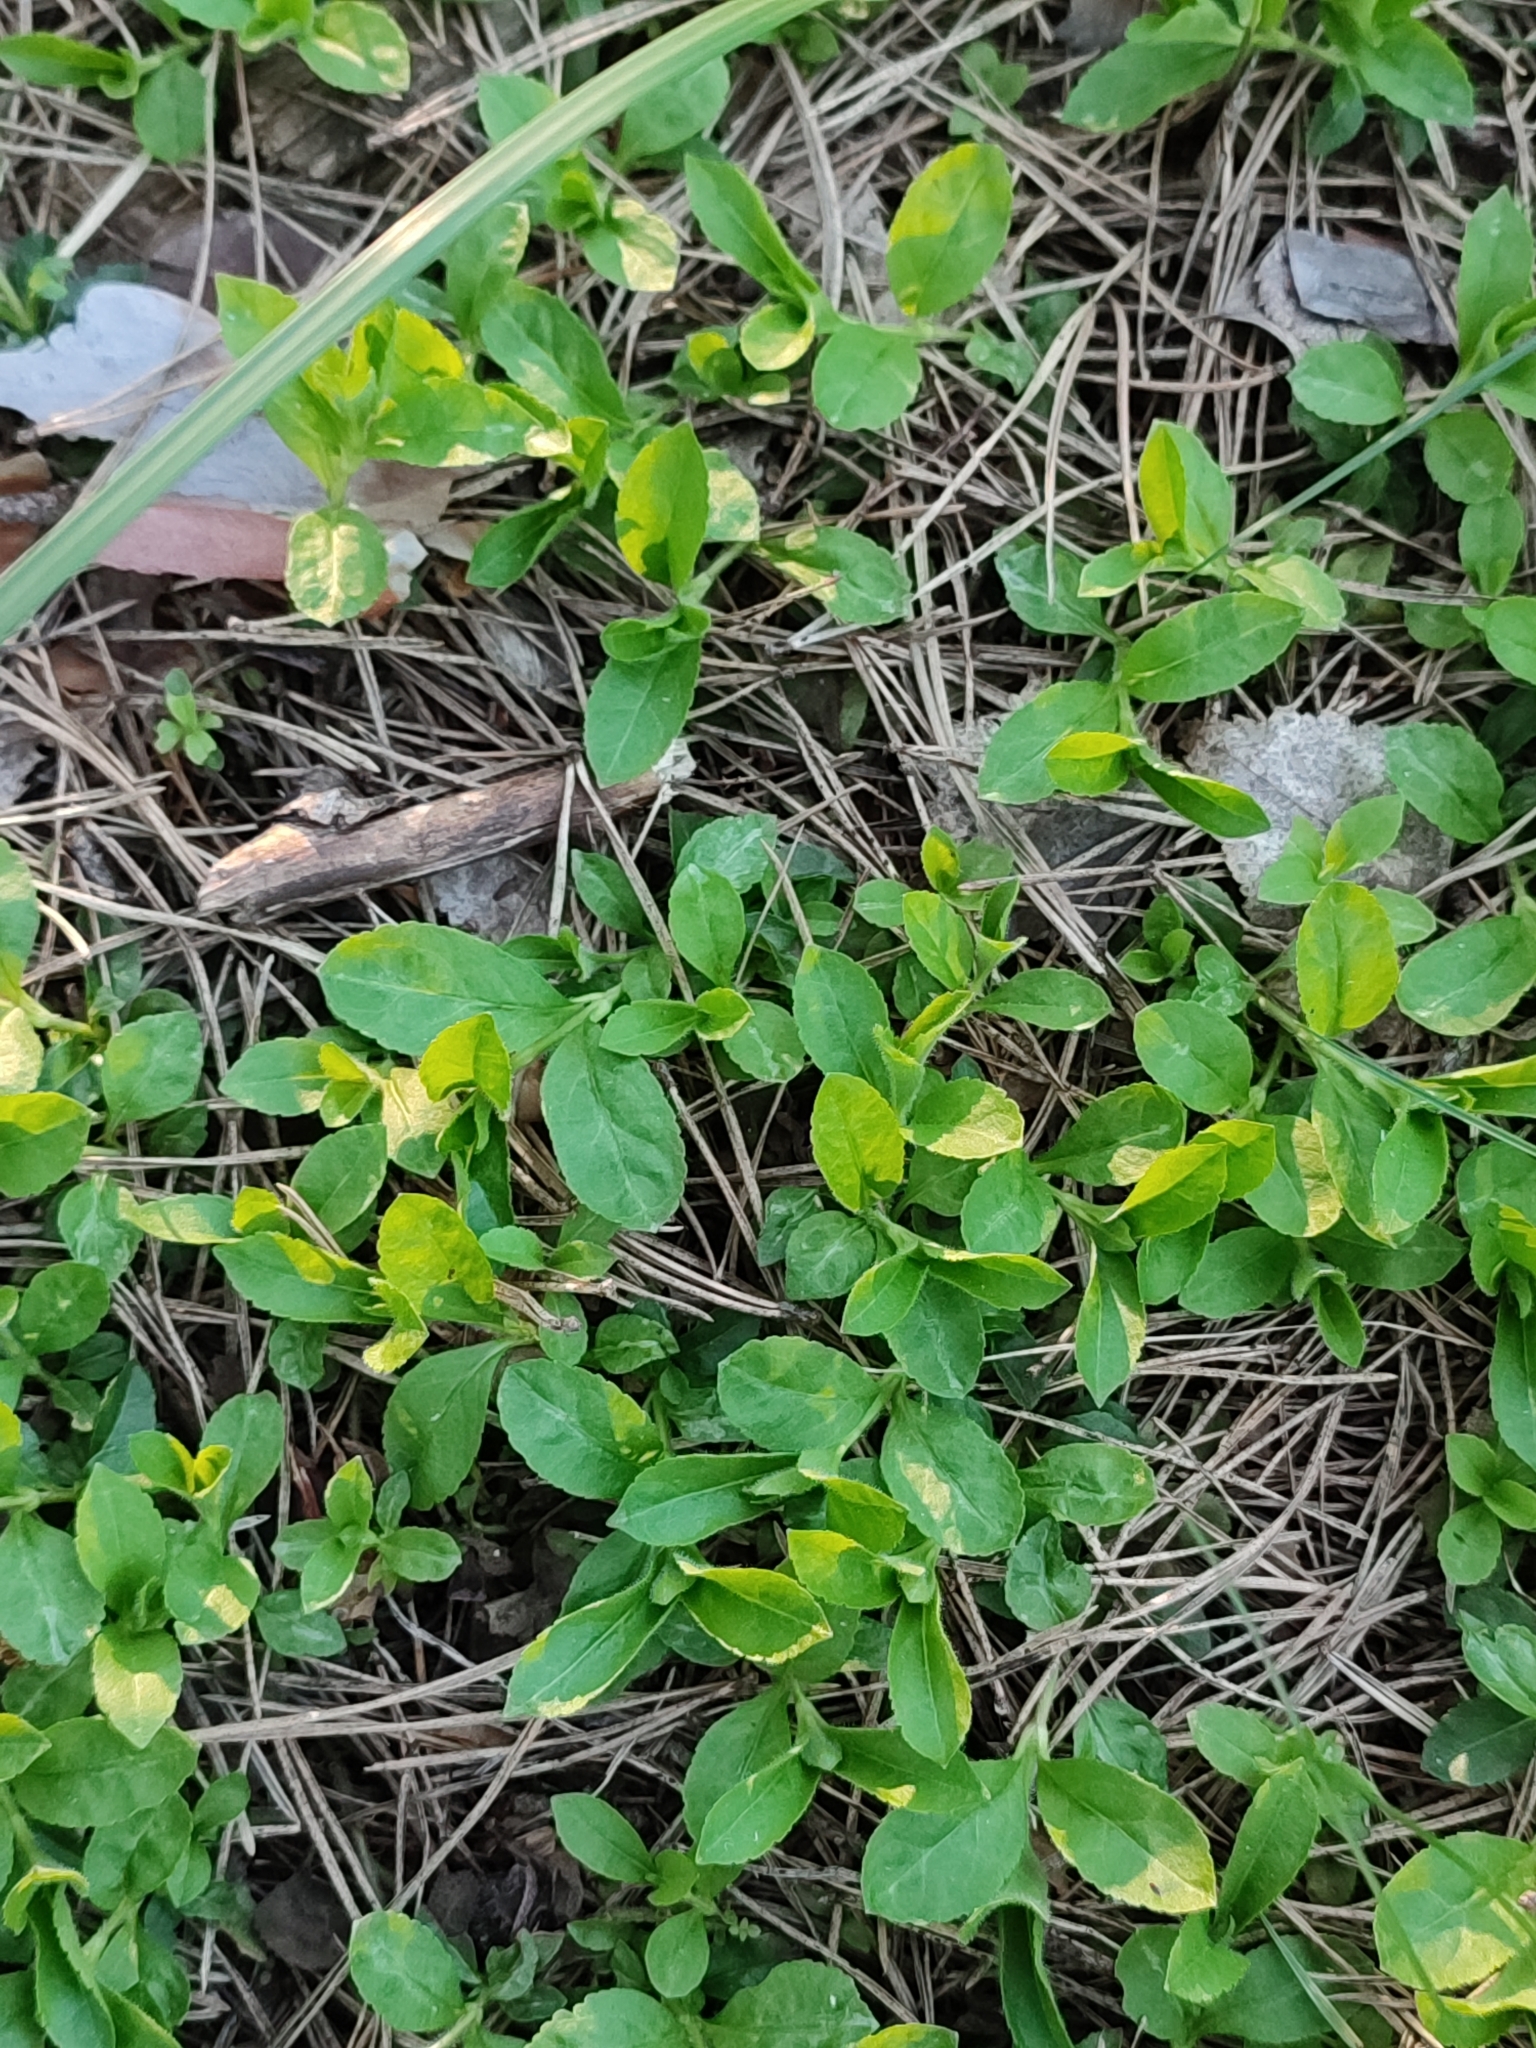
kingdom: Plantae
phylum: Tracheophyta
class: Magnoliopsida
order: Lamiales
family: Plantaginaceae
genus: Veronica
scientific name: Veronica officinalis
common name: Common speedwell
